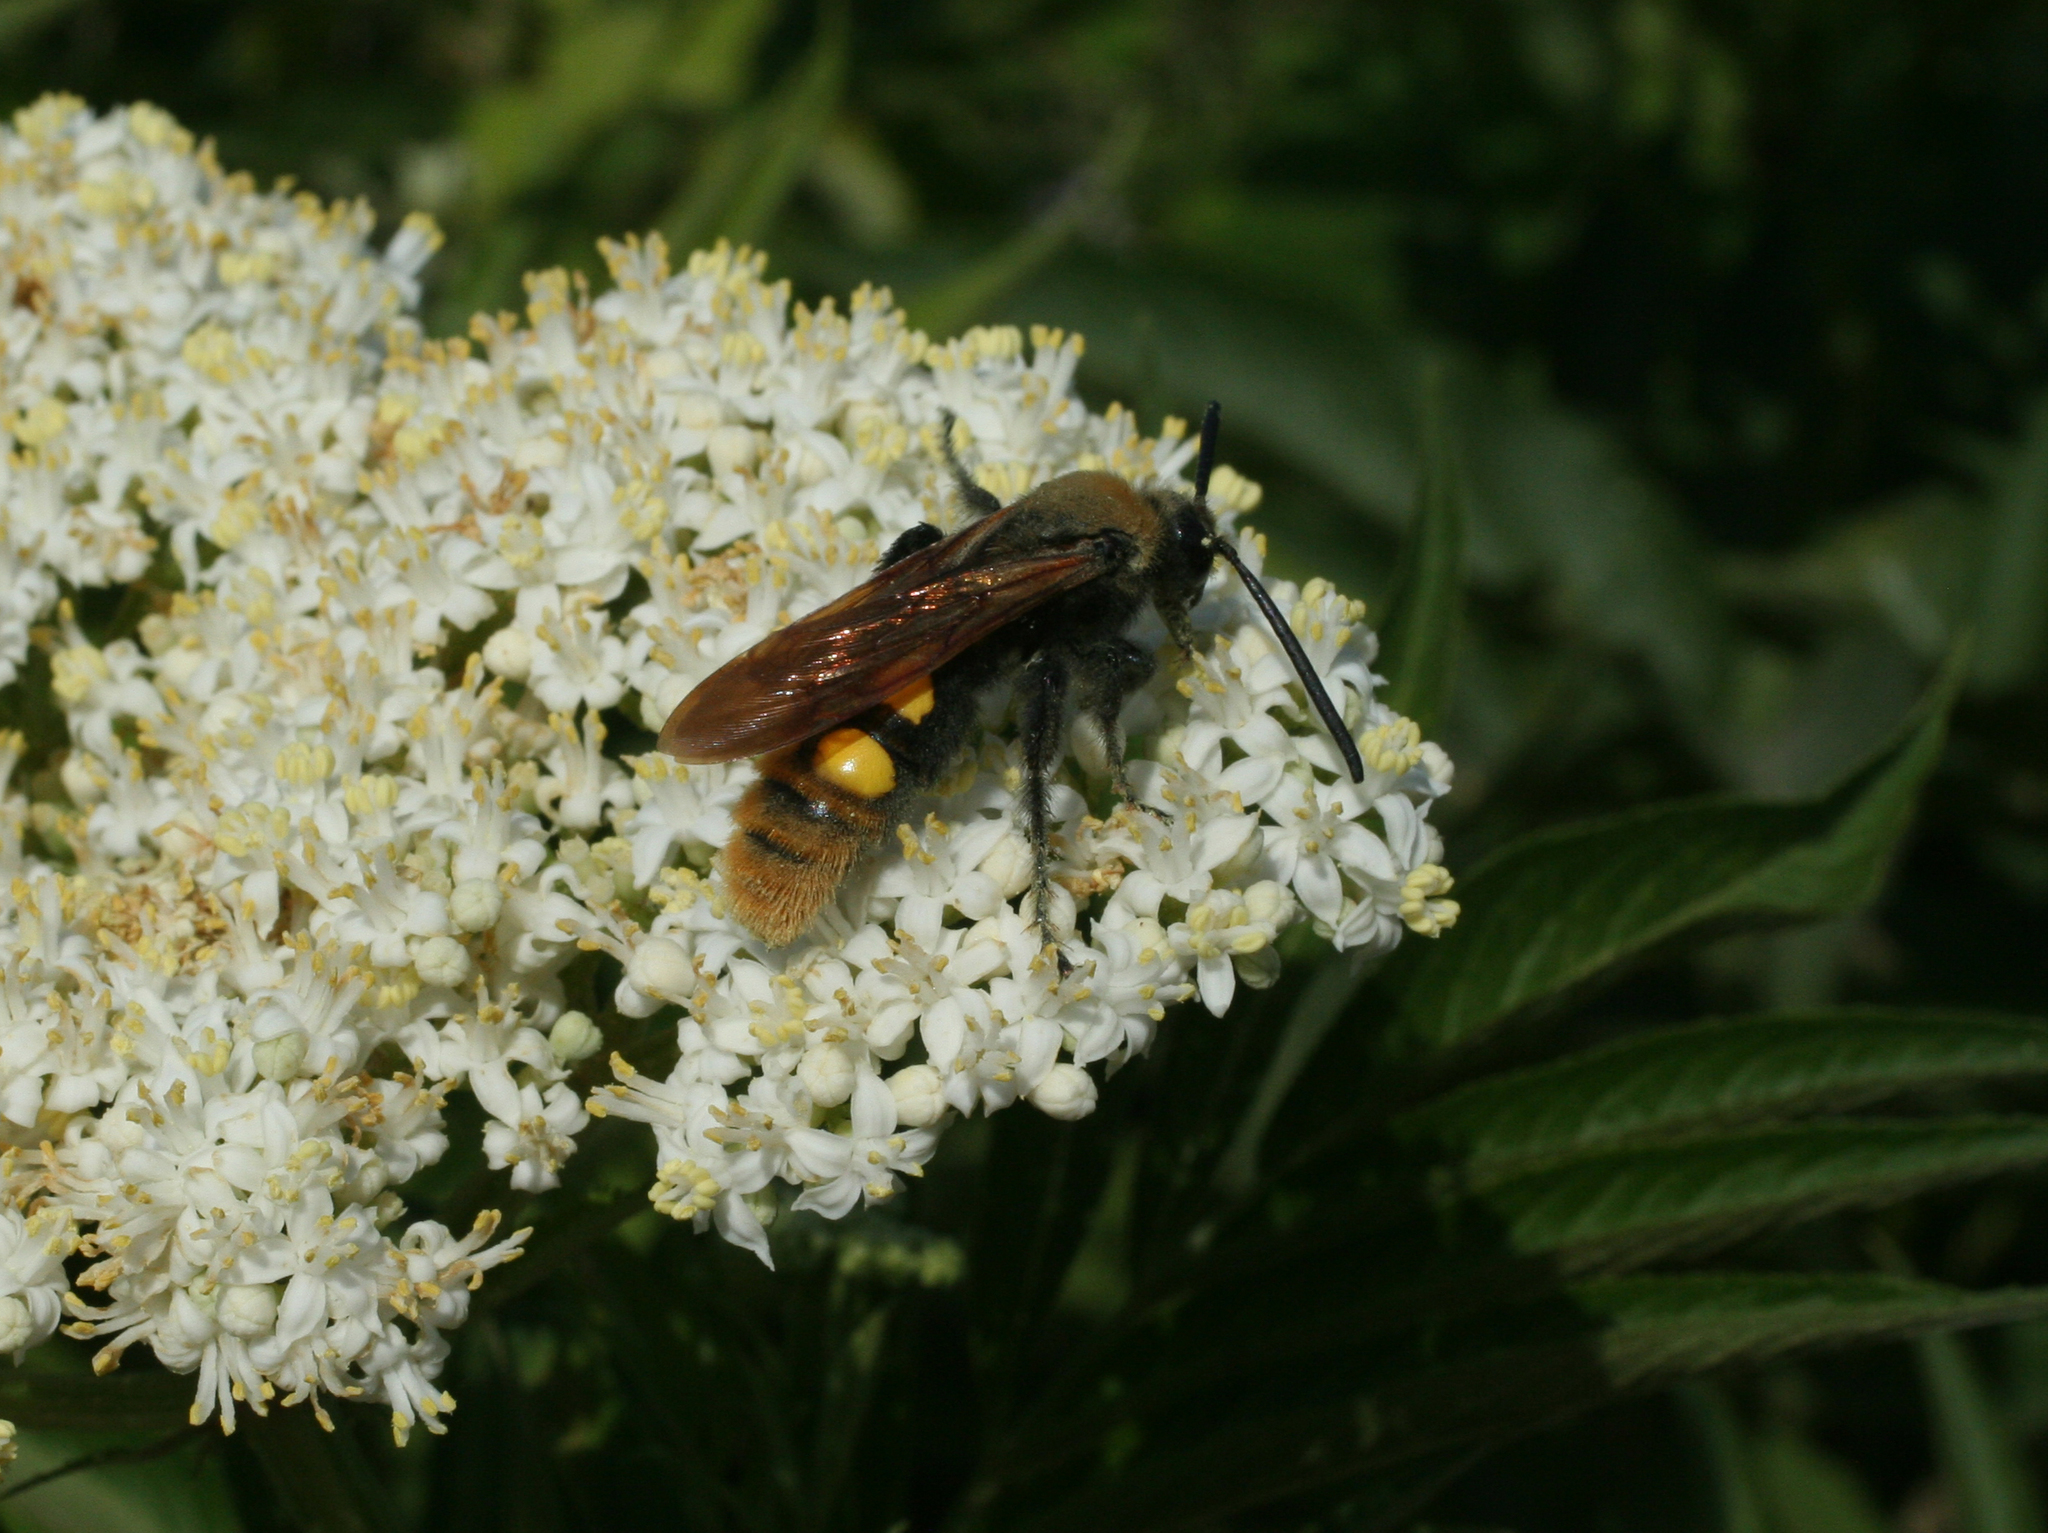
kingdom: Animalia
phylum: Arthropoda
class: Insecta
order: Hymenoptera
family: Scoliidae
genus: Megascolia
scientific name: Megascolia maculata
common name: Mammoth wasp
